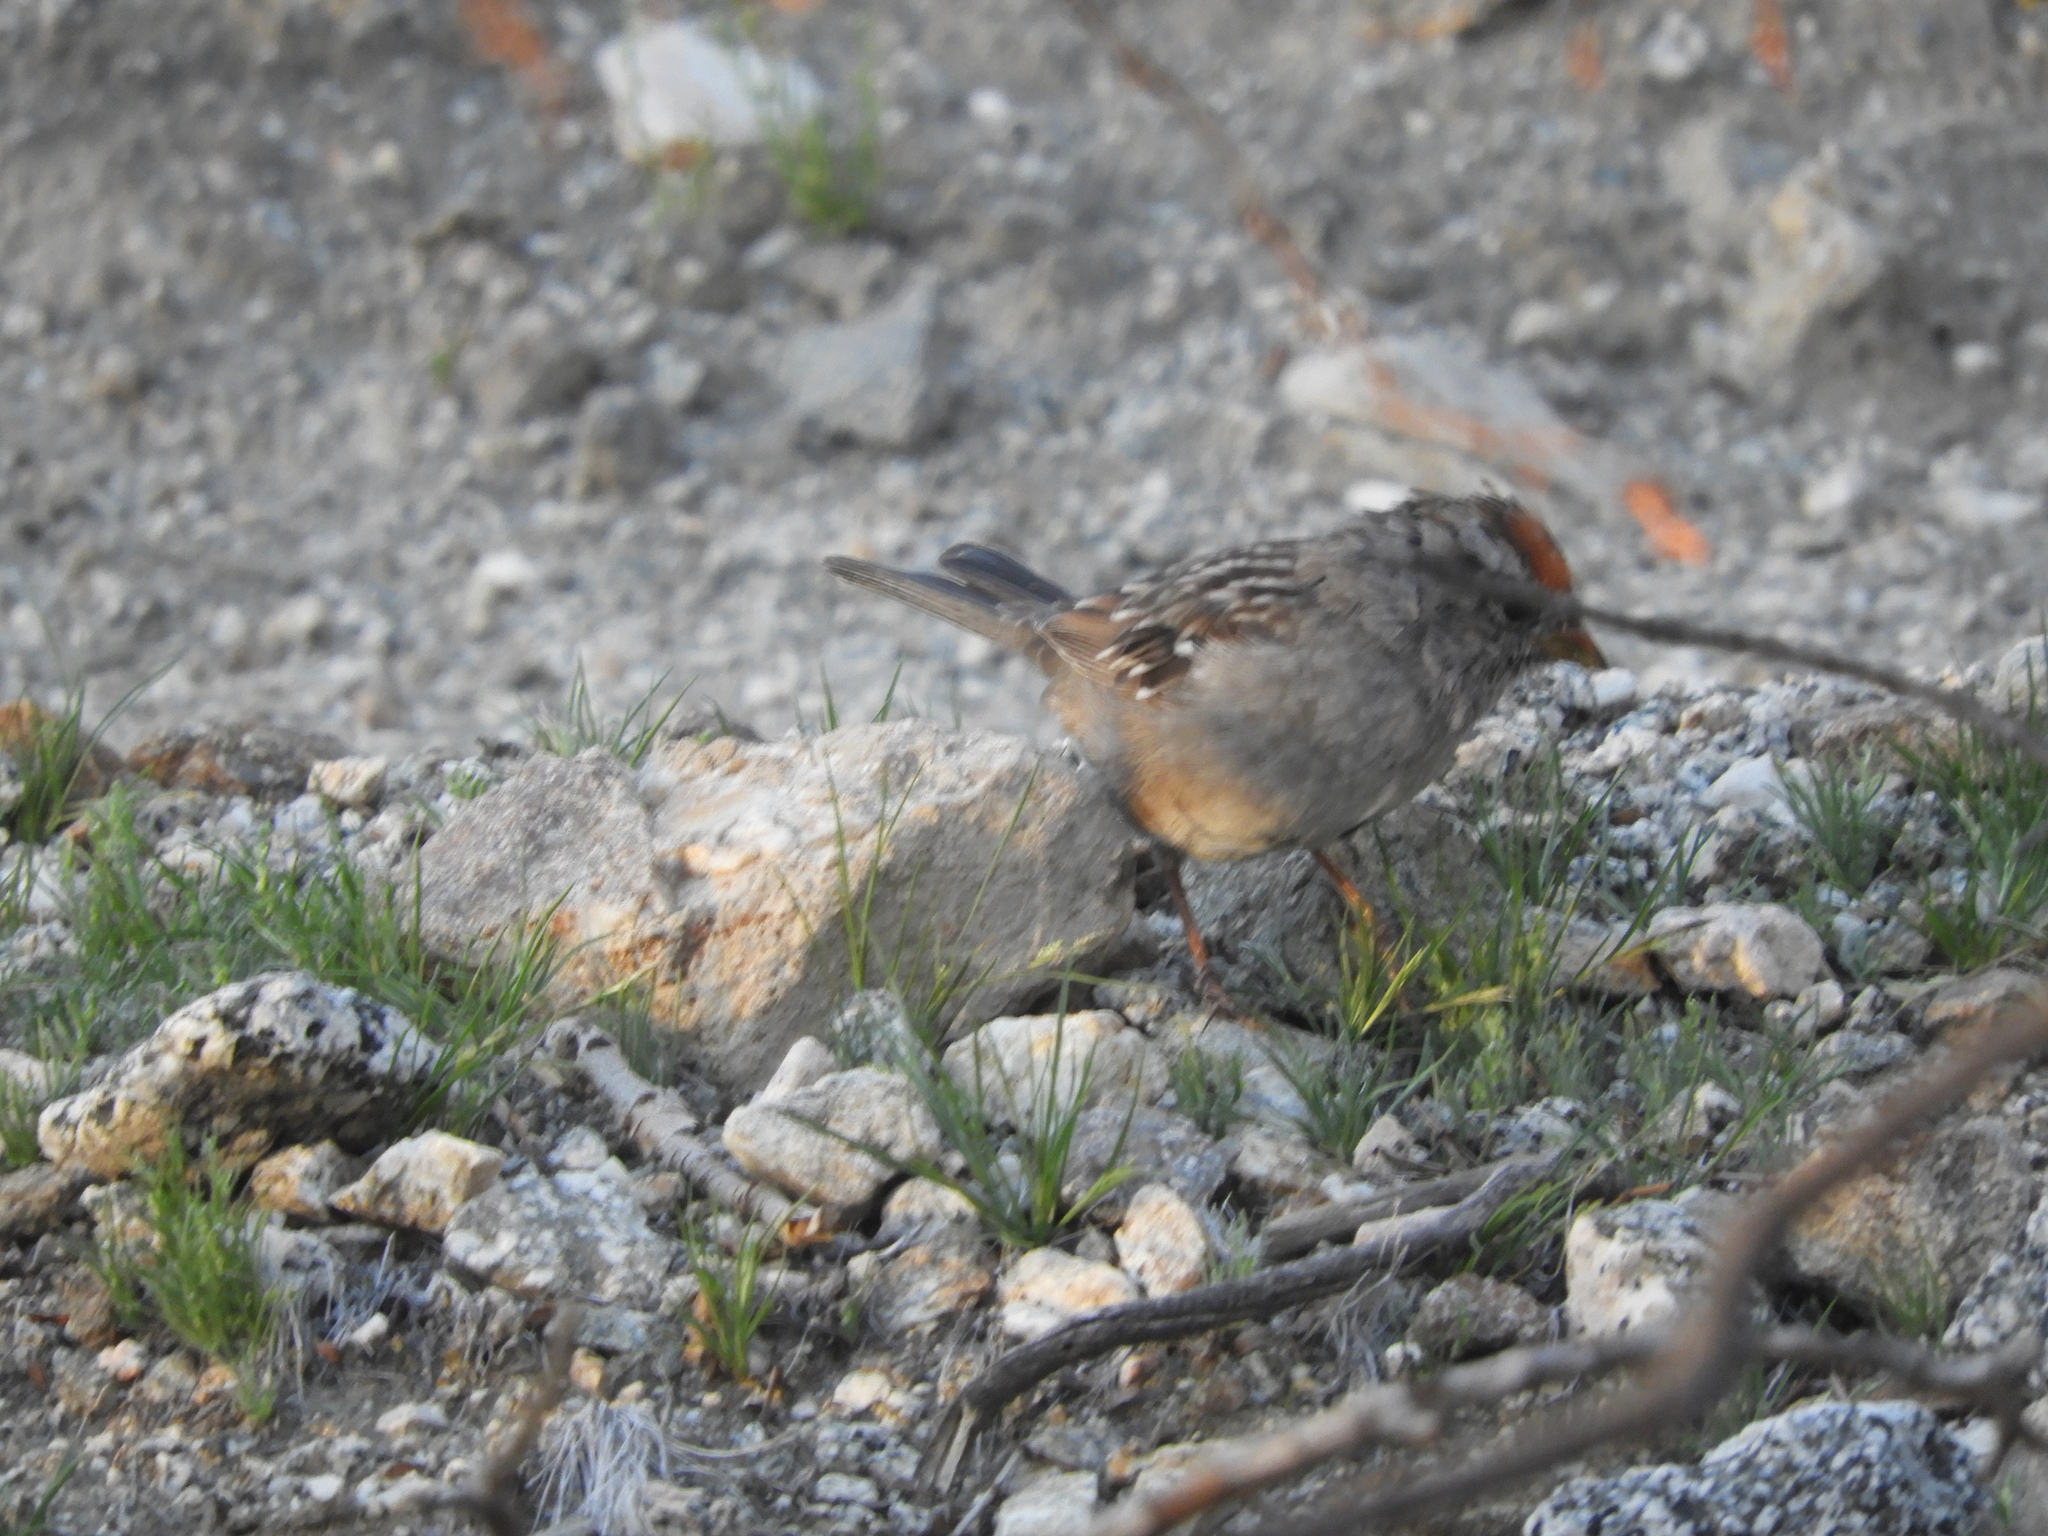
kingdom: Animalia
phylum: Chordata
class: Aves
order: Passeriformes
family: Passerellidae
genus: Zonotrichia
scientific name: Zonotrichia atricapilla
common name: Golden-crowned sparrow
